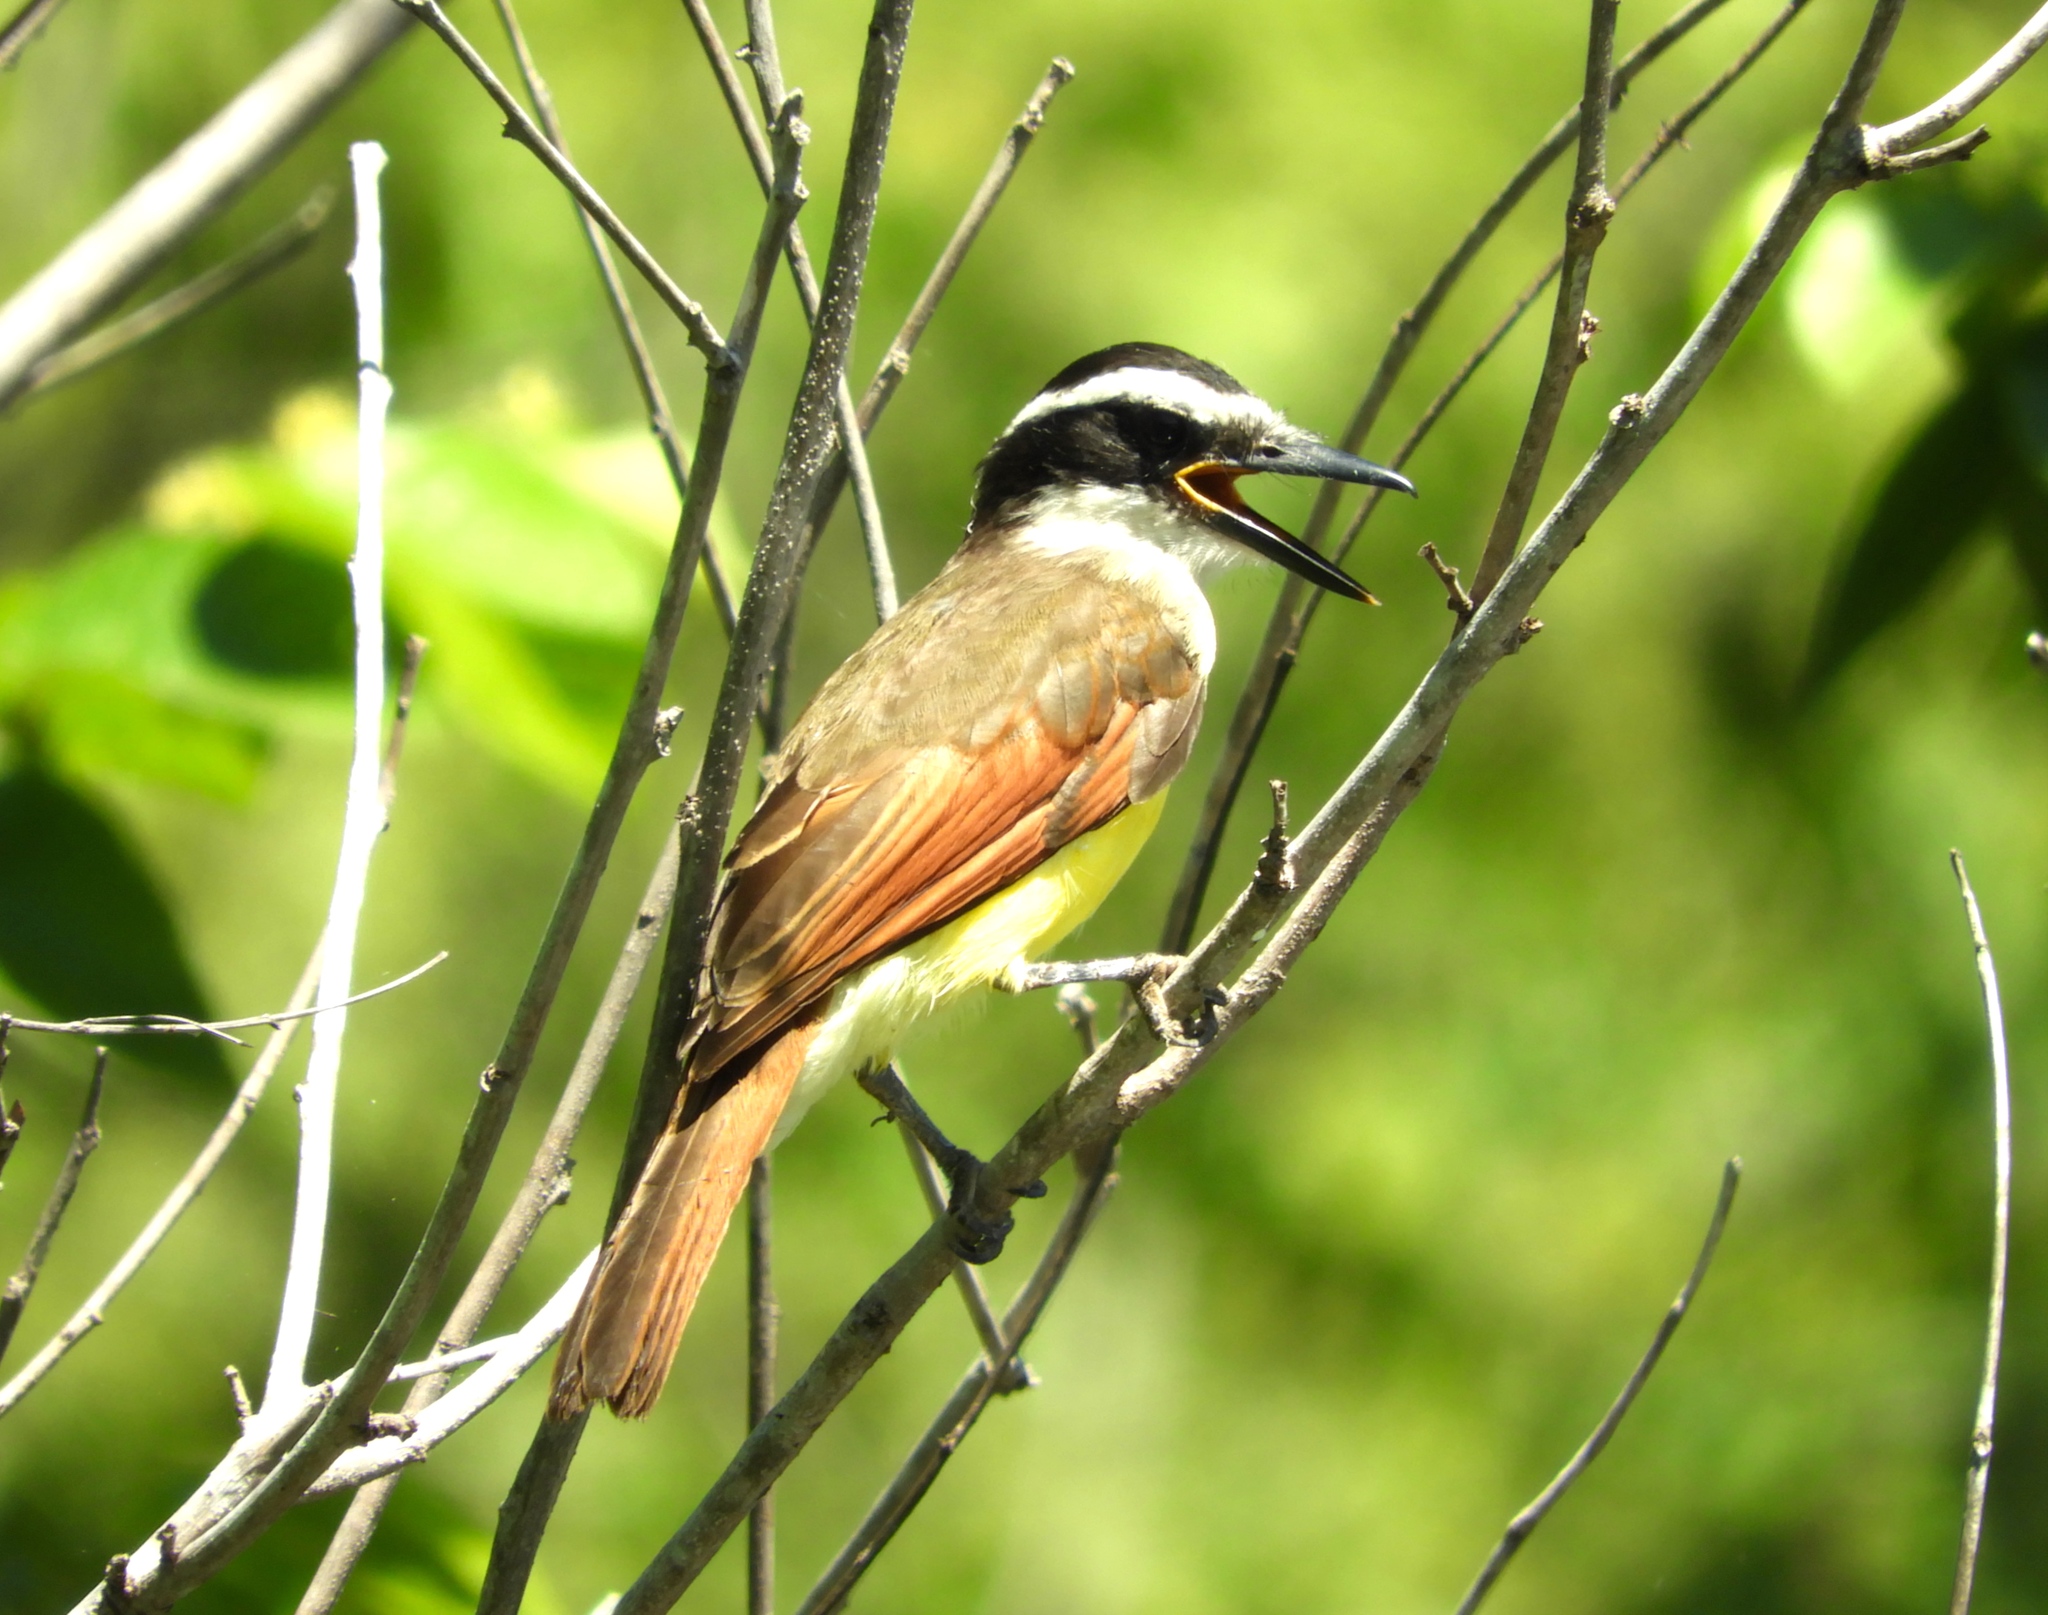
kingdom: Animalia
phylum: Chordata
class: Aves
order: Passeriformes
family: Tyrannidae
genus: Pitangus
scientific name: Pitangus sulphuratus
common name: Great kiskadee
